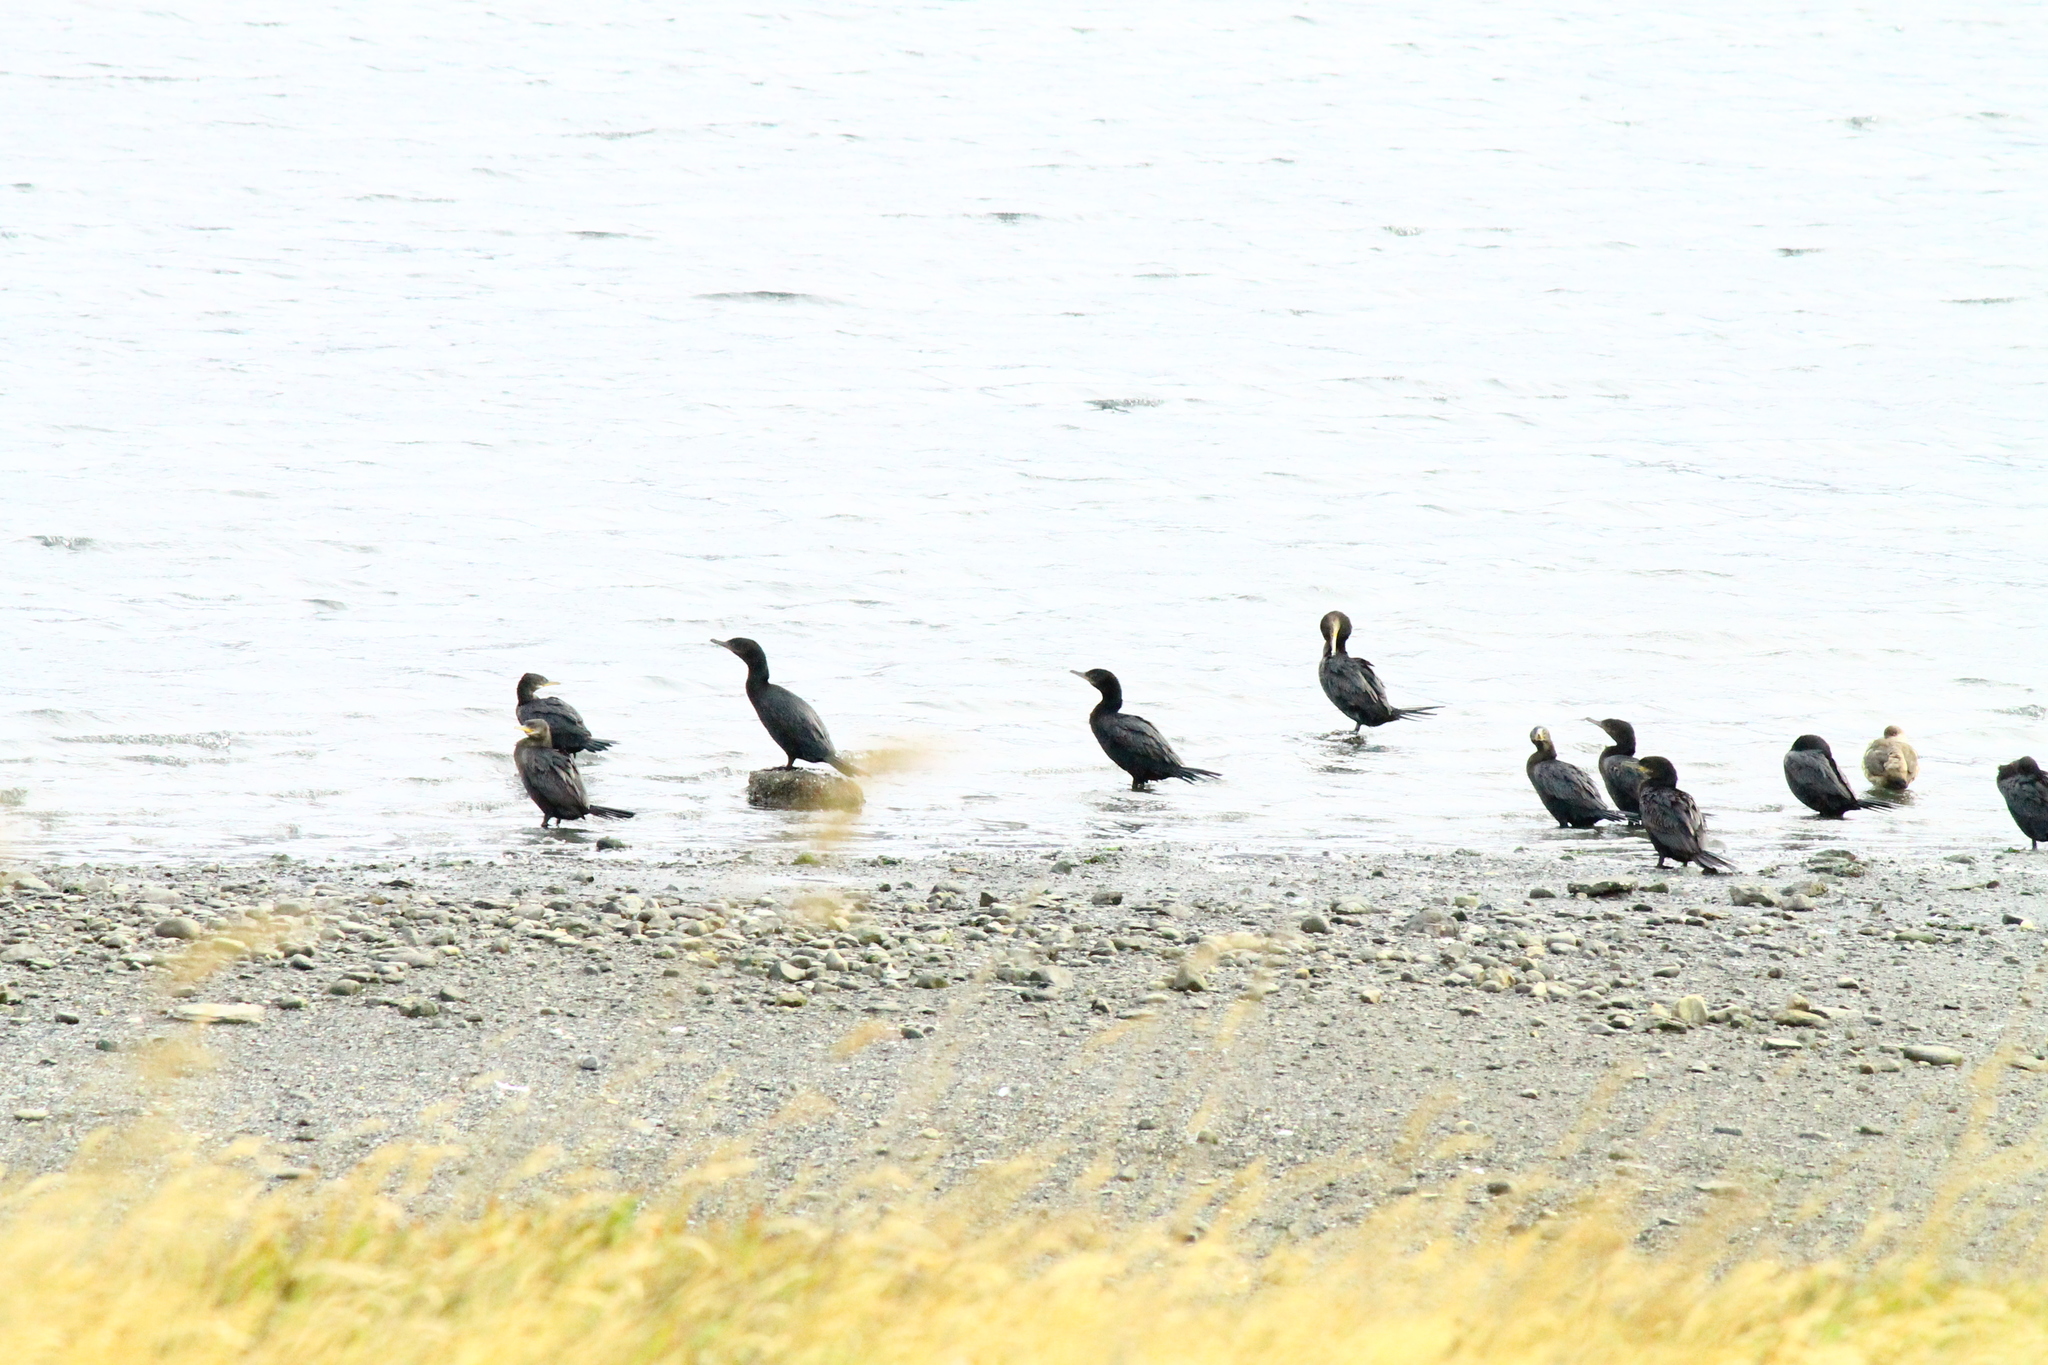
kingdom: Animalia
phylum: Chordata
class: Aves
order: Suliformes
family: Phalacrocoracidae
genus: Phalacrocorax
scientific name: Phalacrocorax brasilianus
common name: Neotropic cormorant
